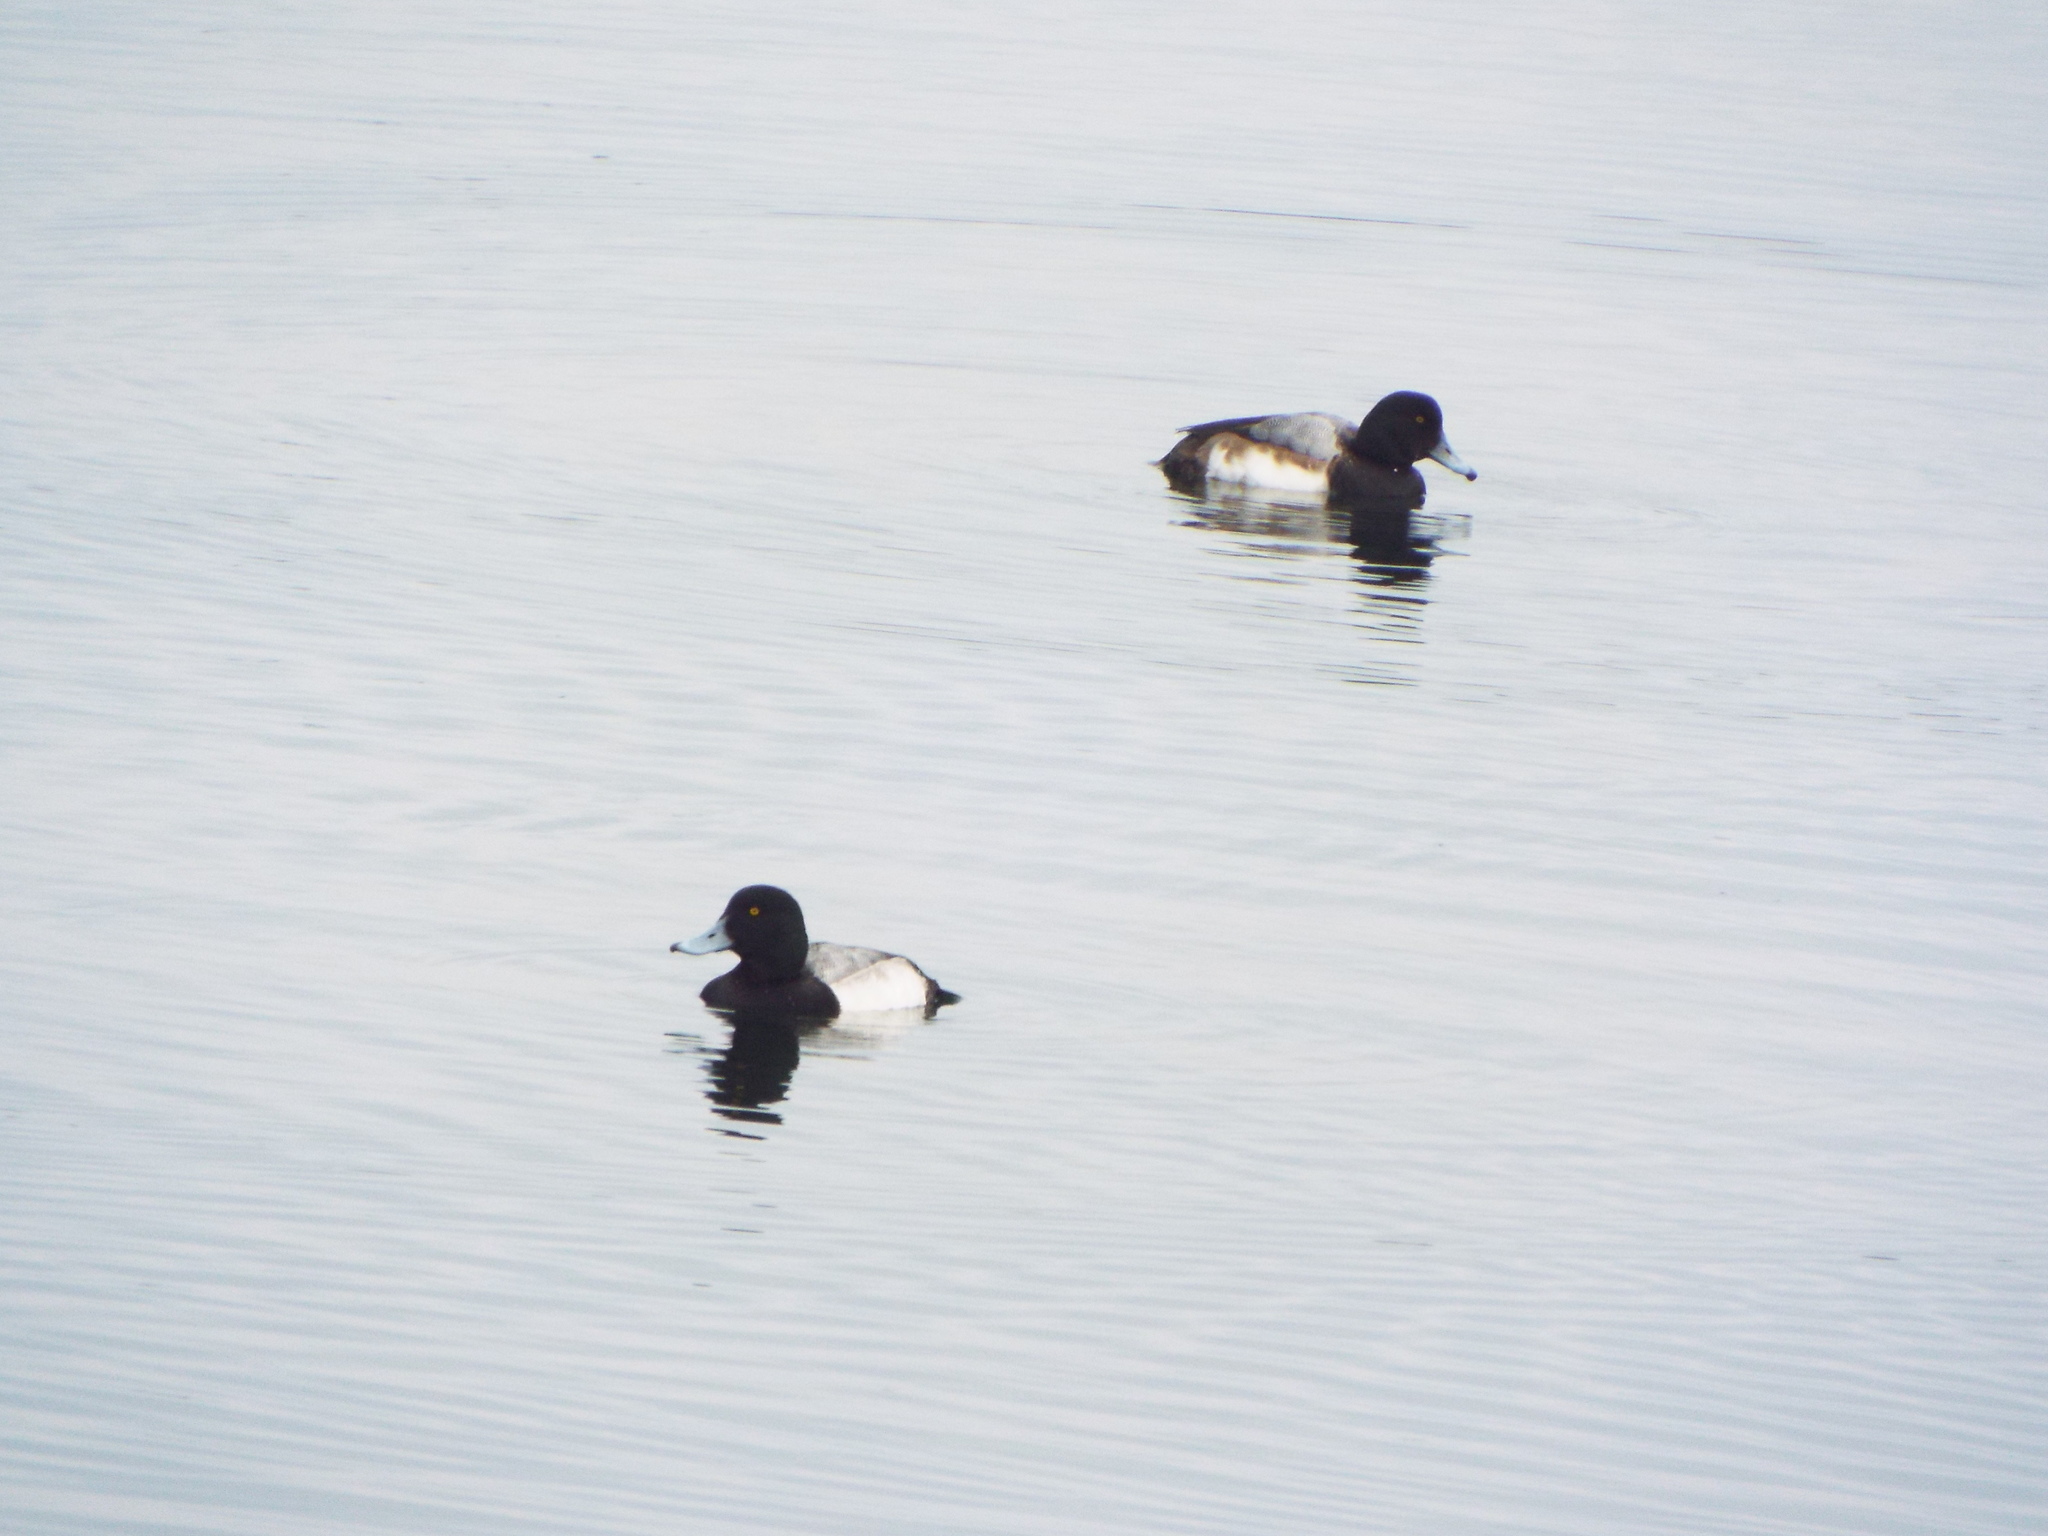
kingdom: Animalia
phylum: Chordata
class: Aves
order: Anseriformes
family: Anatidae
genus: Aythya
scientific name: Aythya marila
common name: Greater scaup
